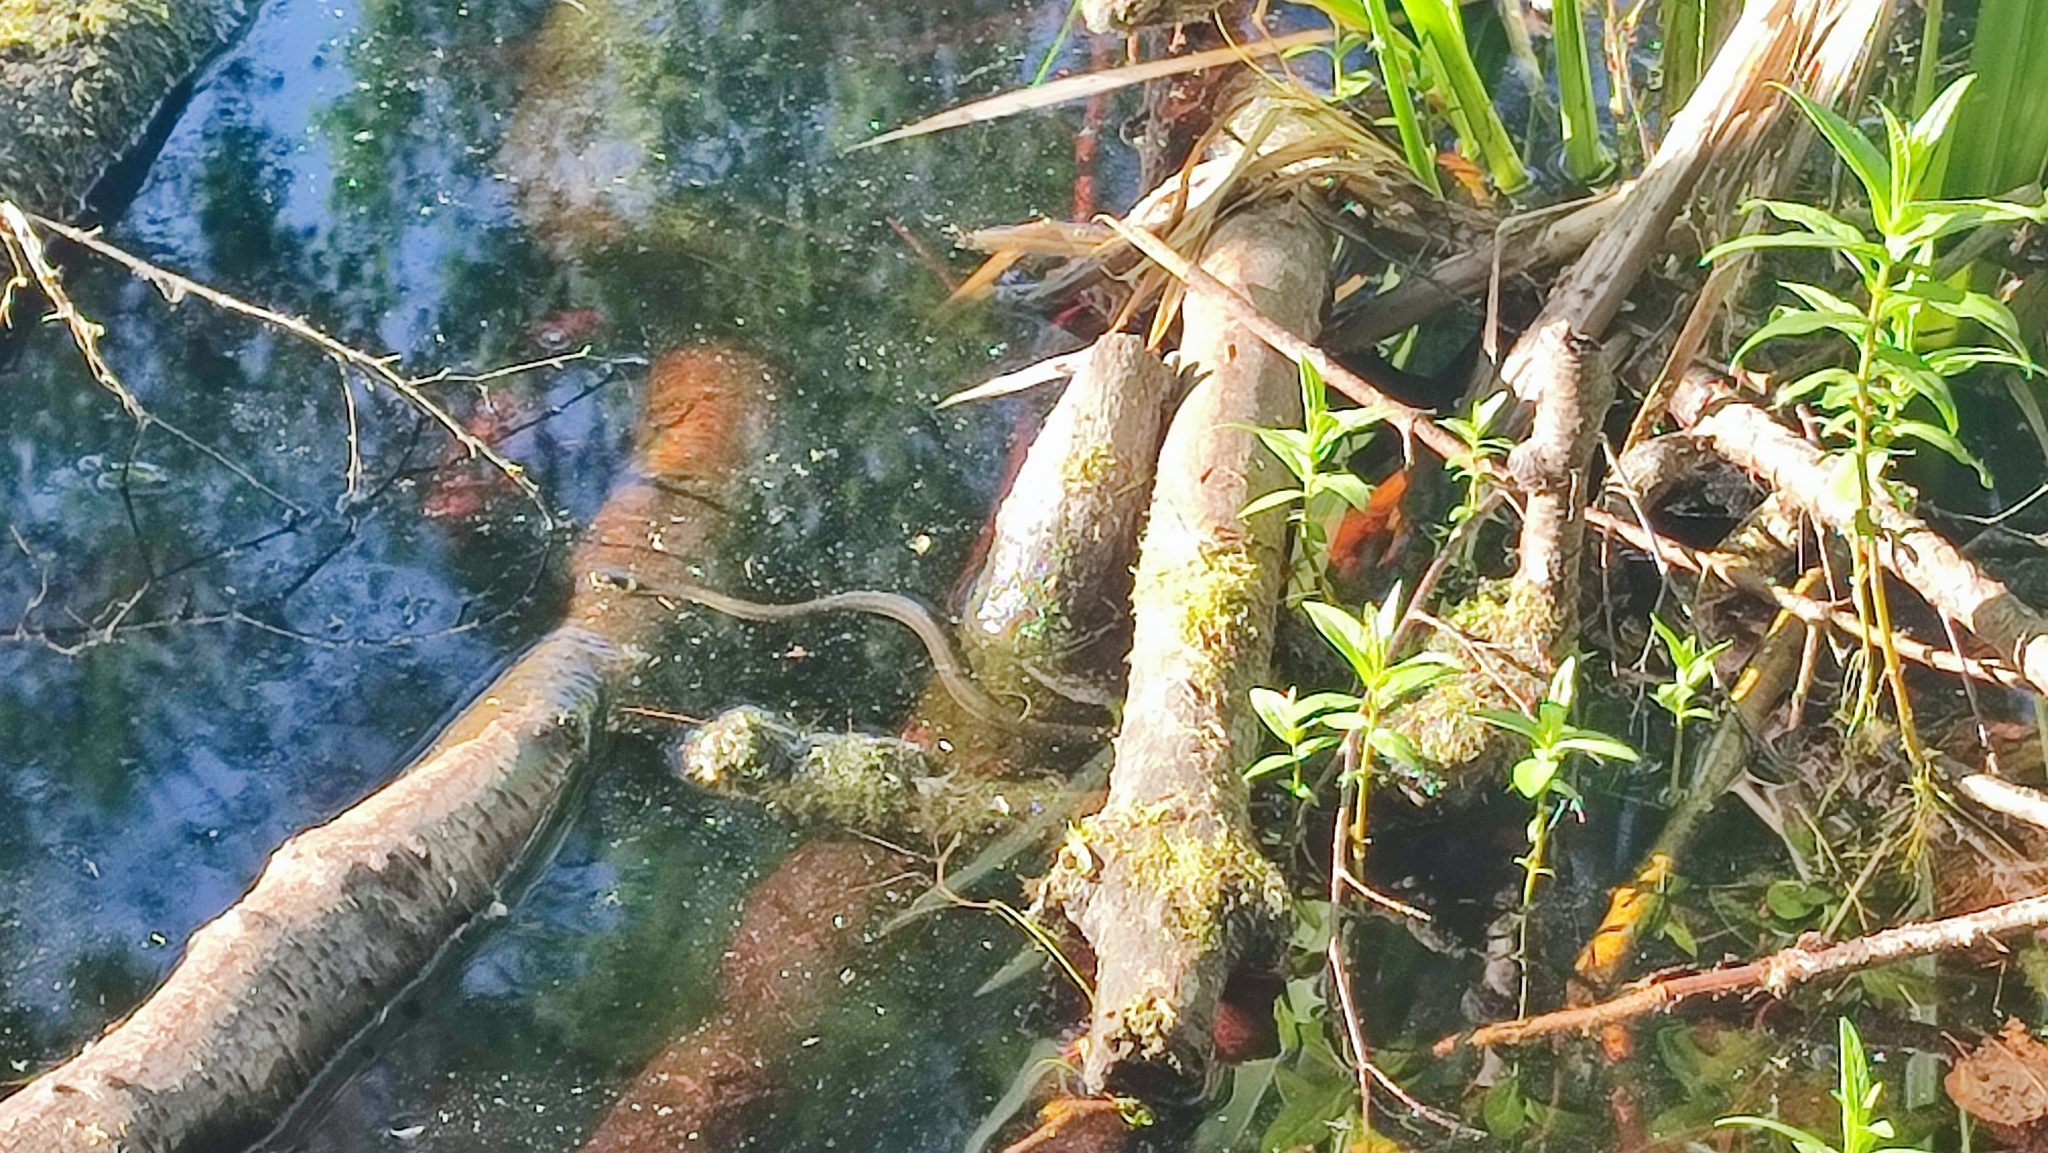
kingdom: Animalia
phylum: Chordata
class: Squamata
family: Colubridae
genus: Natrix
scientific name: Natrix natrix
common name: Grass snake
